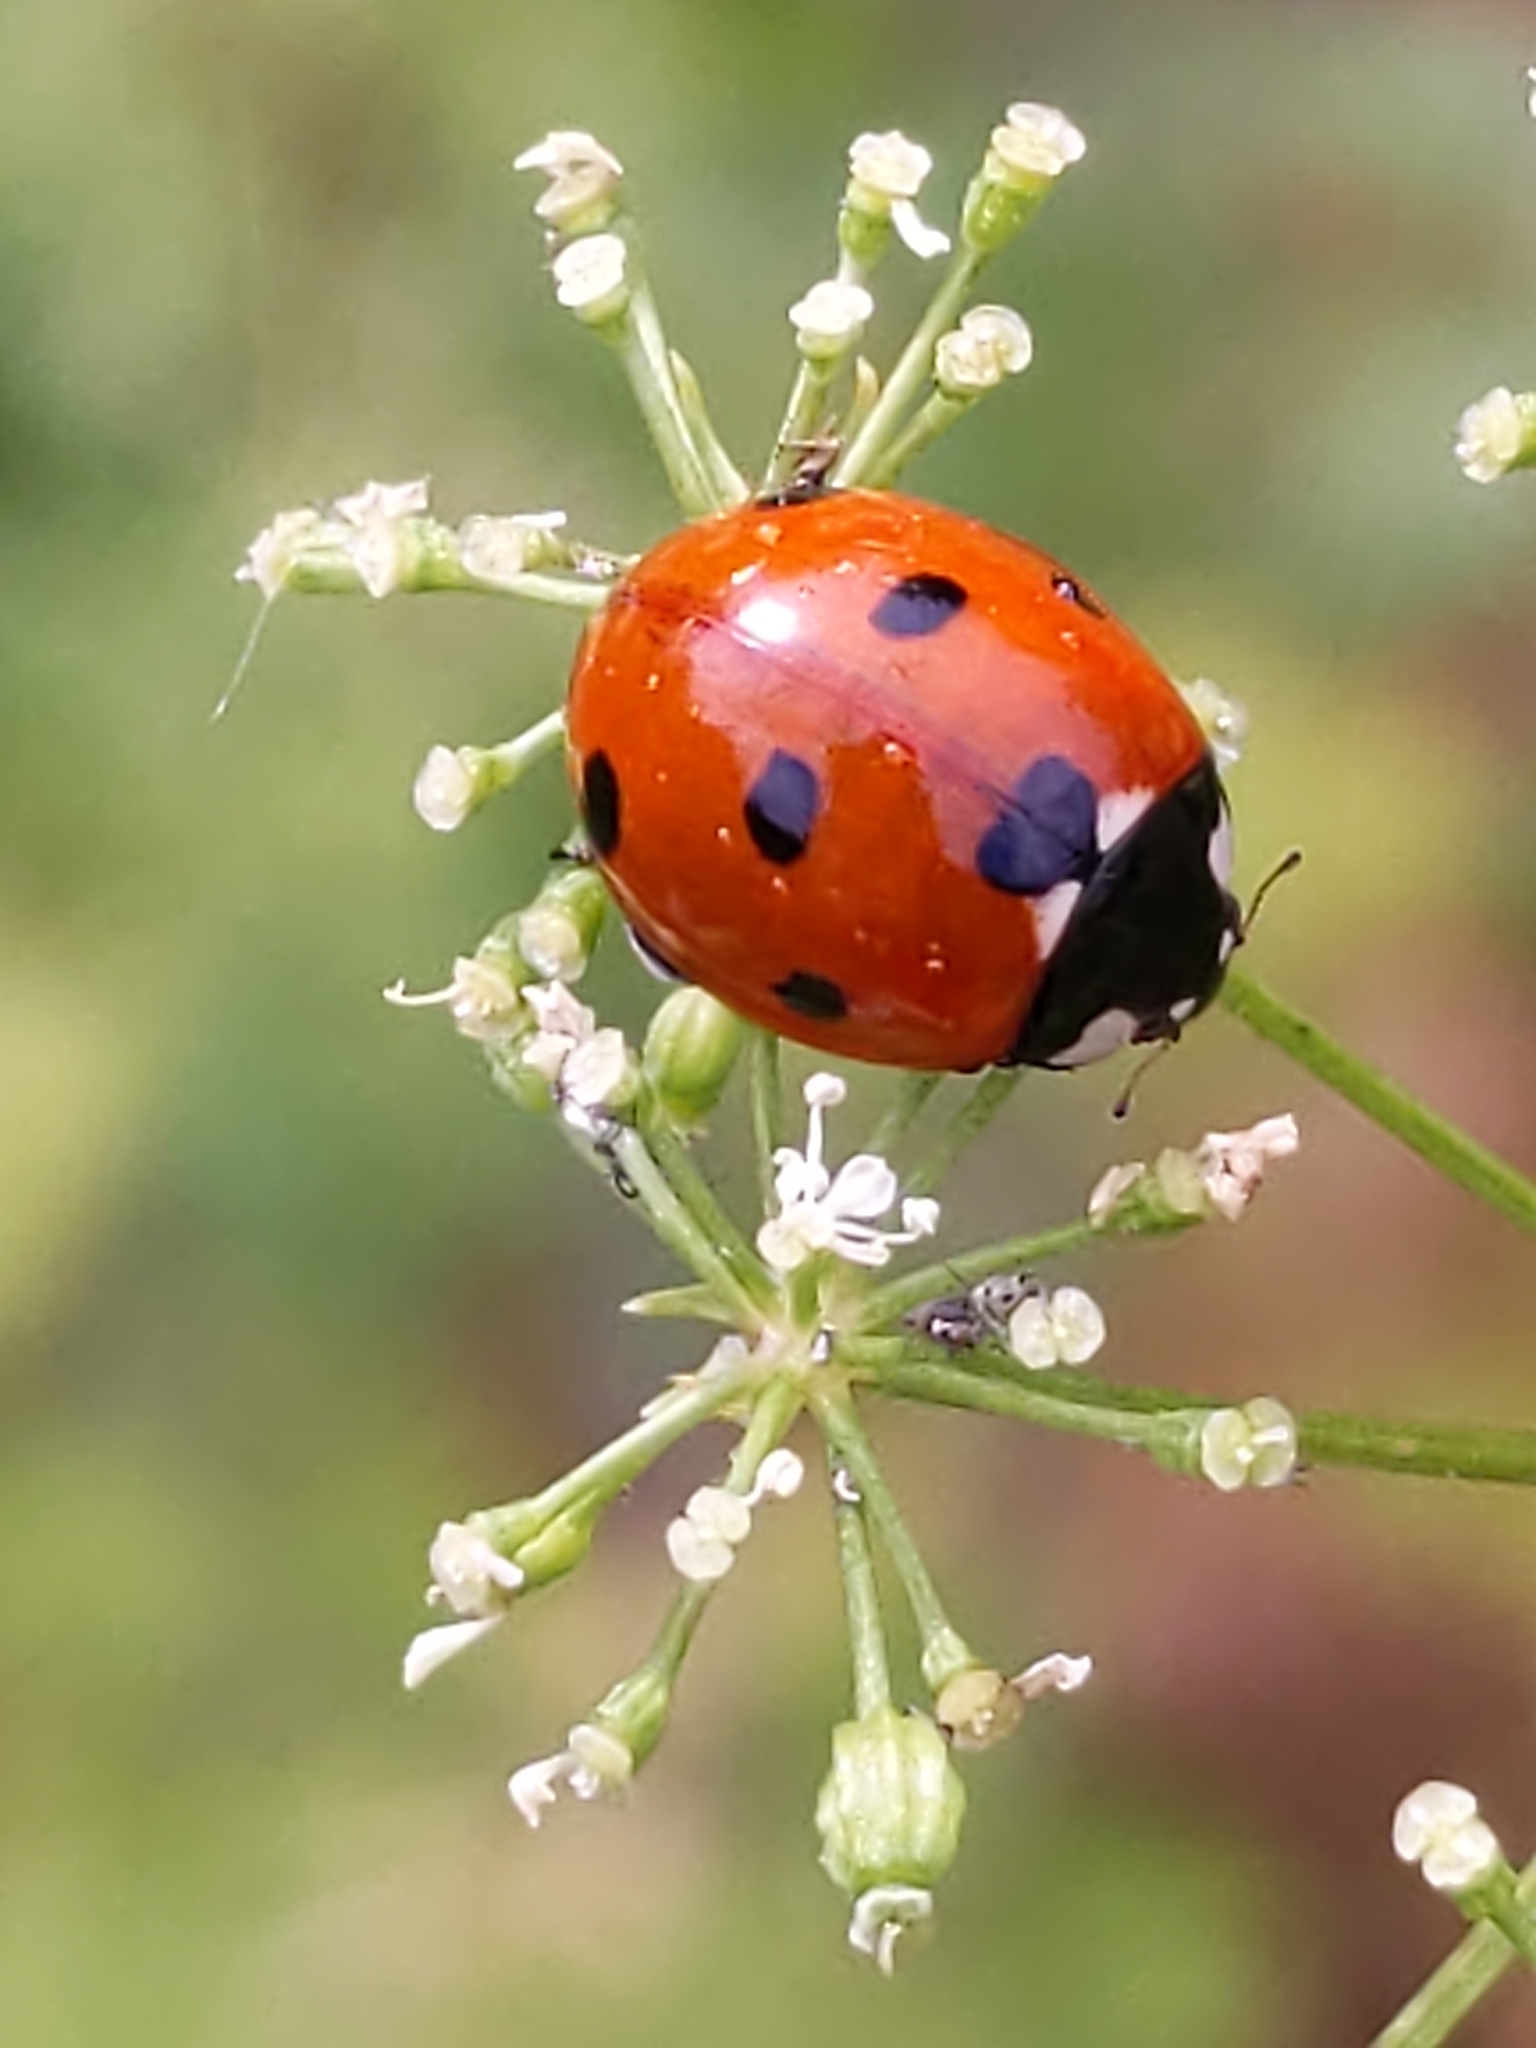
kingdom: Animalia
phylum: Arthropoda
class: Insecta
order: Coleoptera
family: Coccinellidae
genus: Coccinella
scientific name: Coccinella septempunctata
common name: Sevenspotted lady beetle
